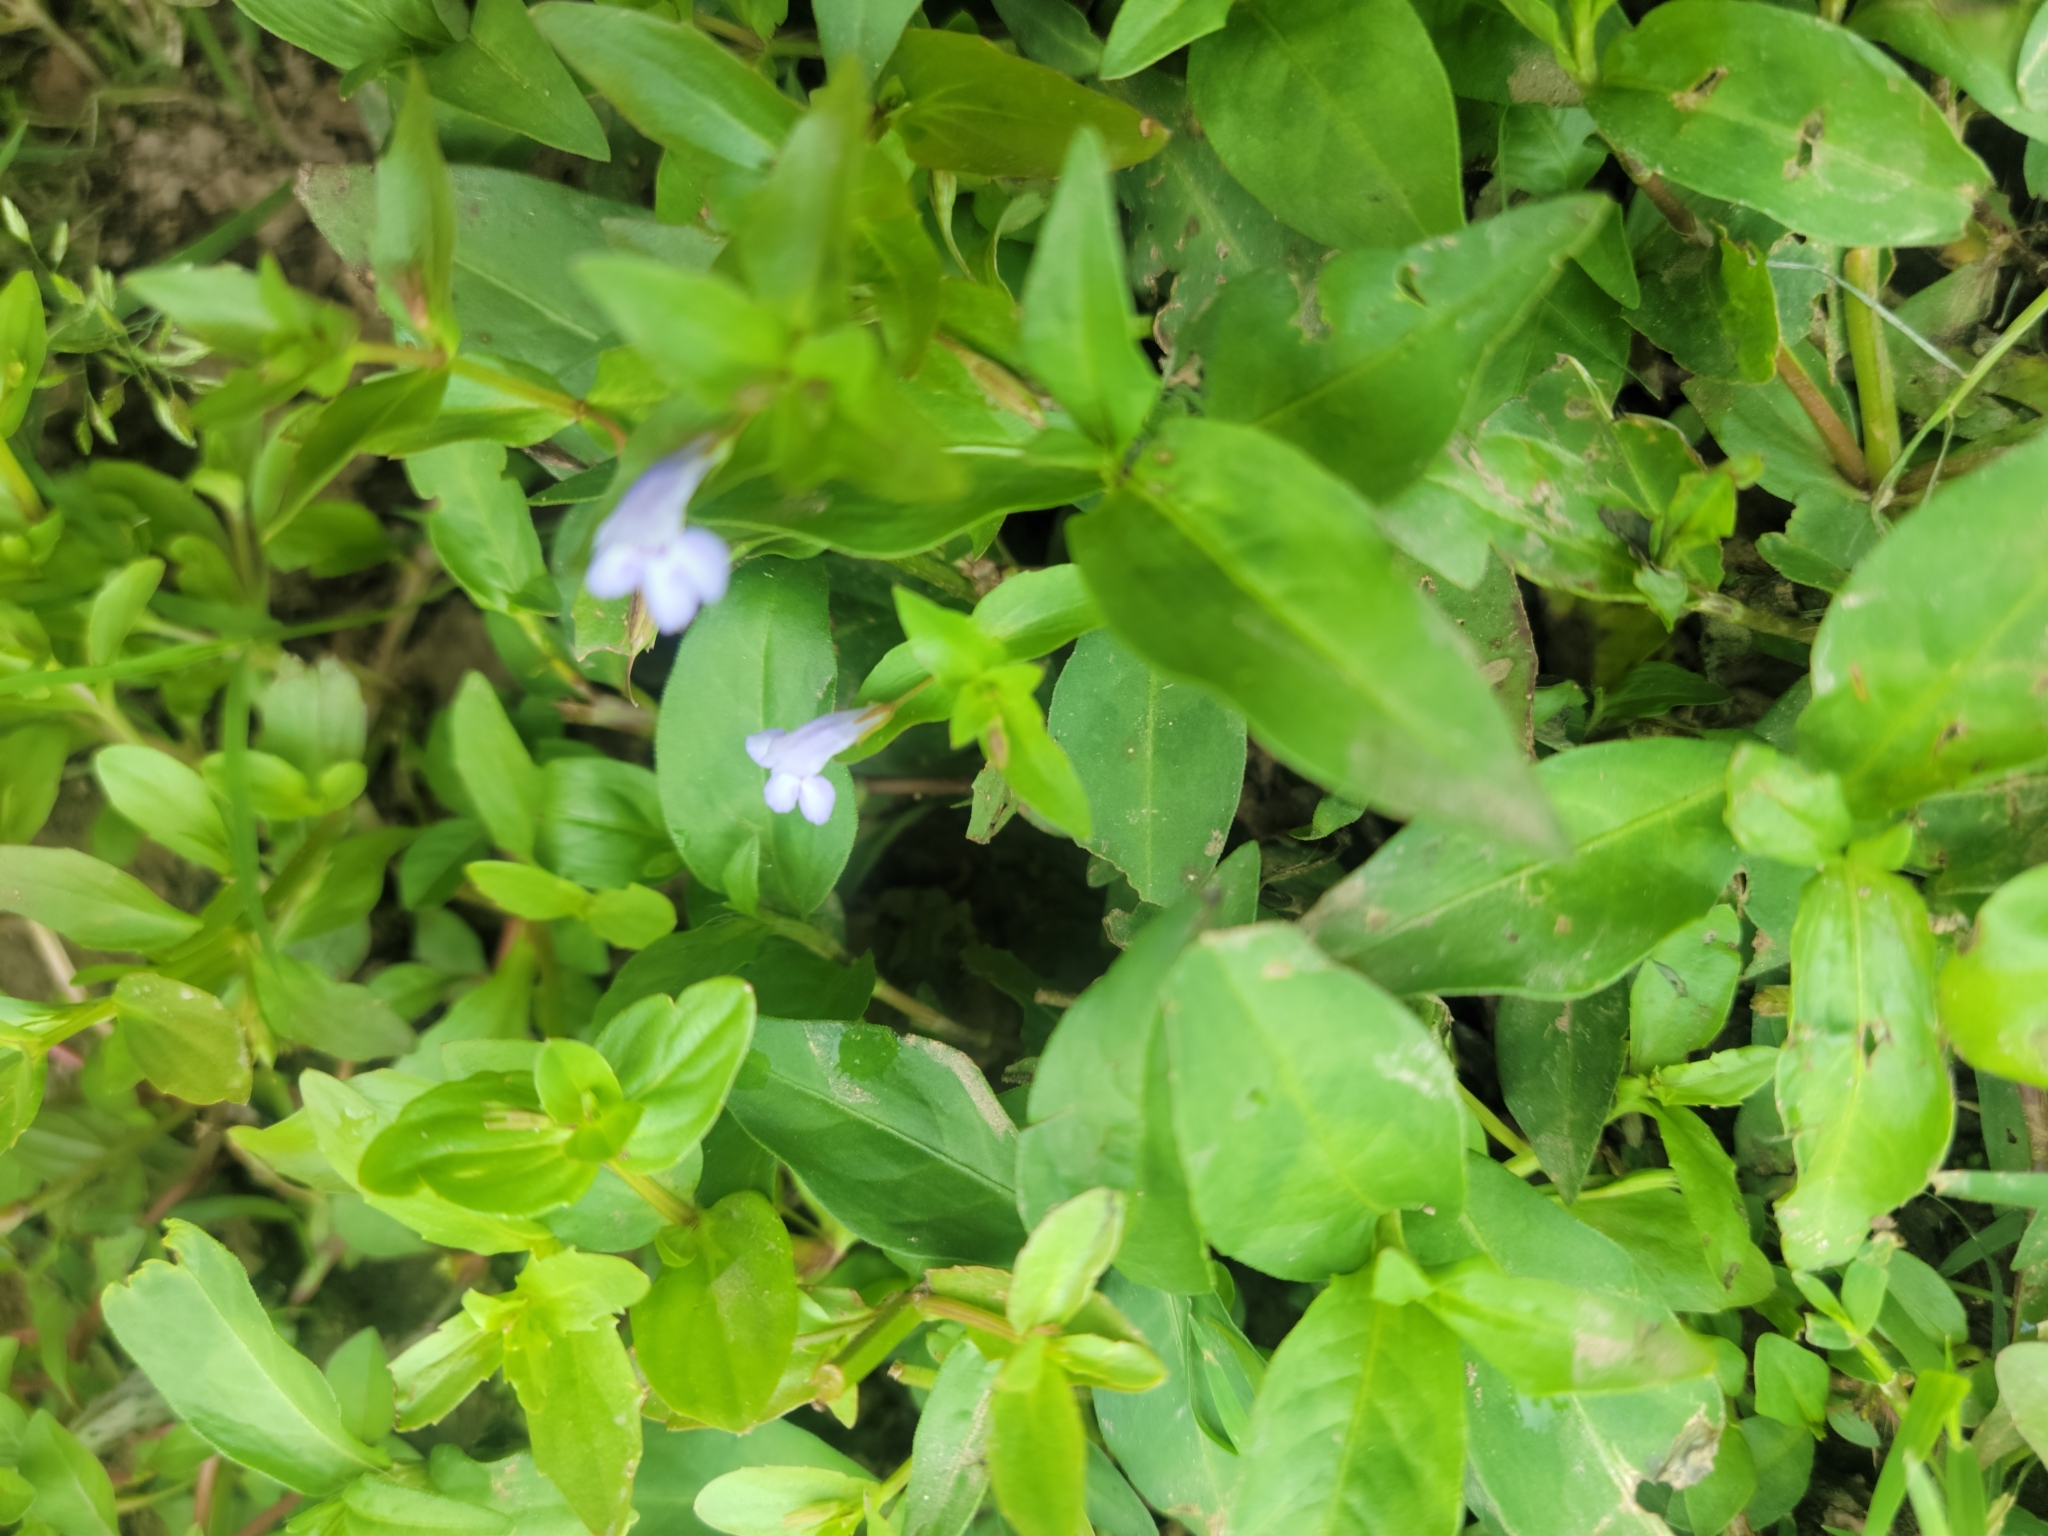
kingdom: Plantae
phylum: Tracheophyta
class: Magnoliopsida
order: Lamiales
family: Linderniaceae
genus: Lindernia
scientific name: Lindernia dubia
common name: Annual false pimpernel
